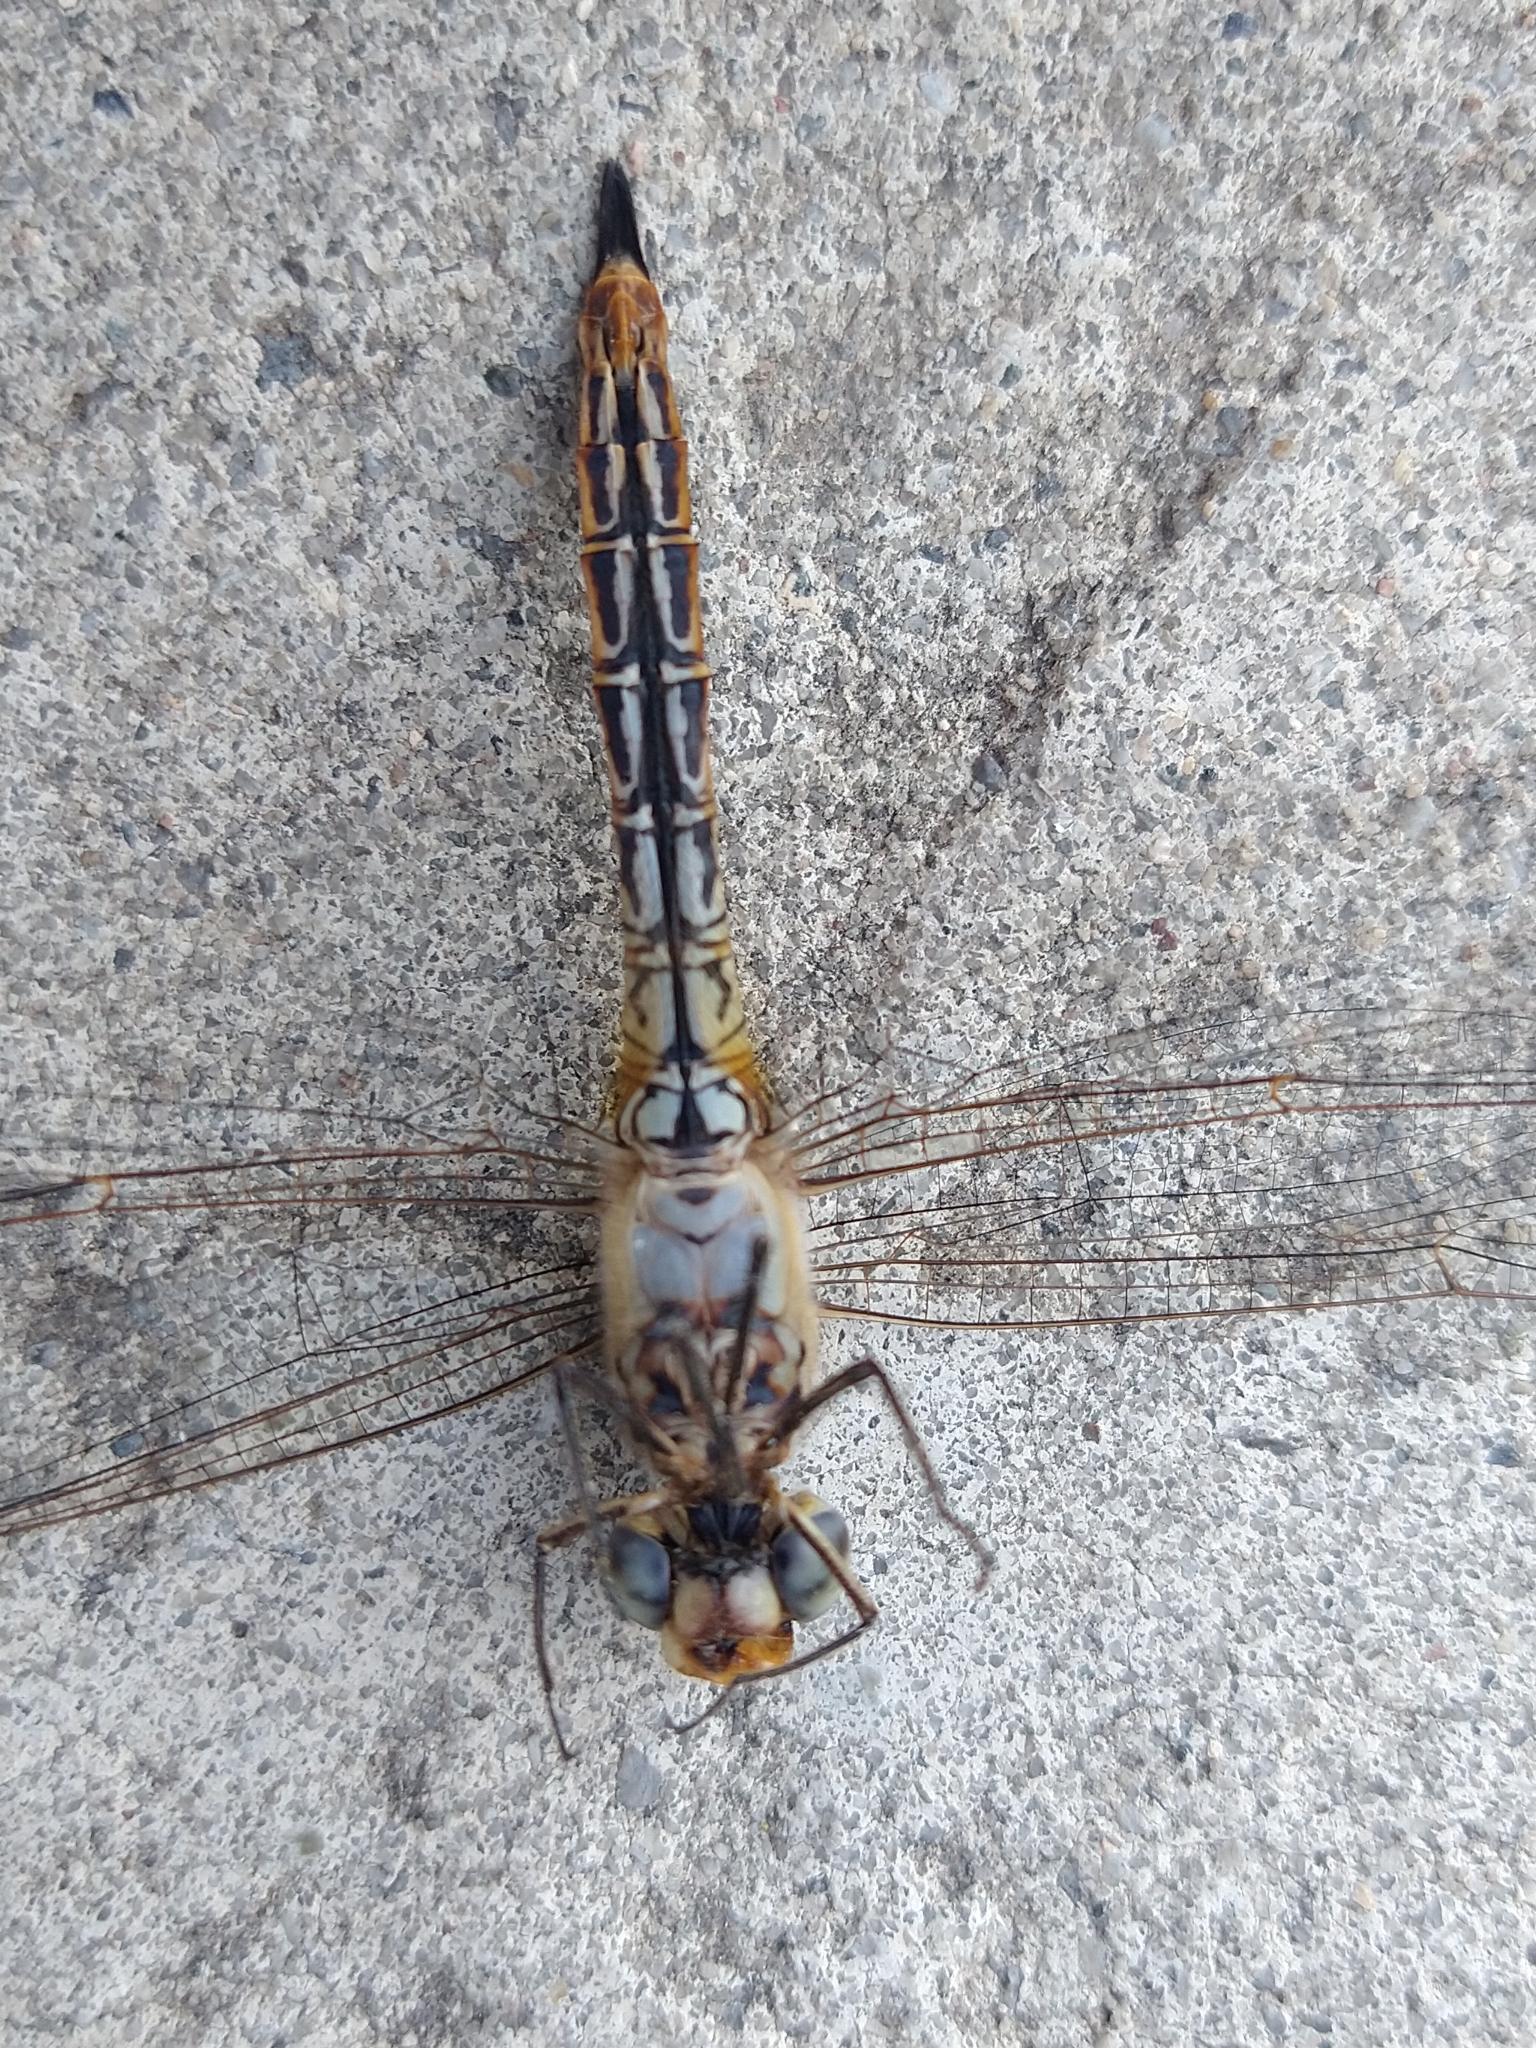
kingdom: Animalia
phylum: Arthropoda
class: Insecta
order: Odonata
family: Libellulidae
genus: Pantala
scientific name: Pantala flavescens
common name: Wandering glider
